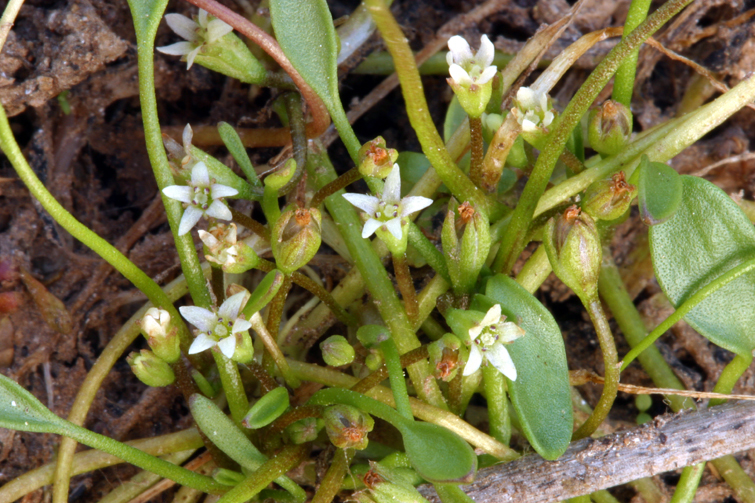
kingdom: Plantae
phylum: Tracheophyta
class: Magnoliopsida
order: Lamiales
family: Scrophulariaceae
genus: Limosella
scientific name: Limosella aquatica
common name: Mudwort
